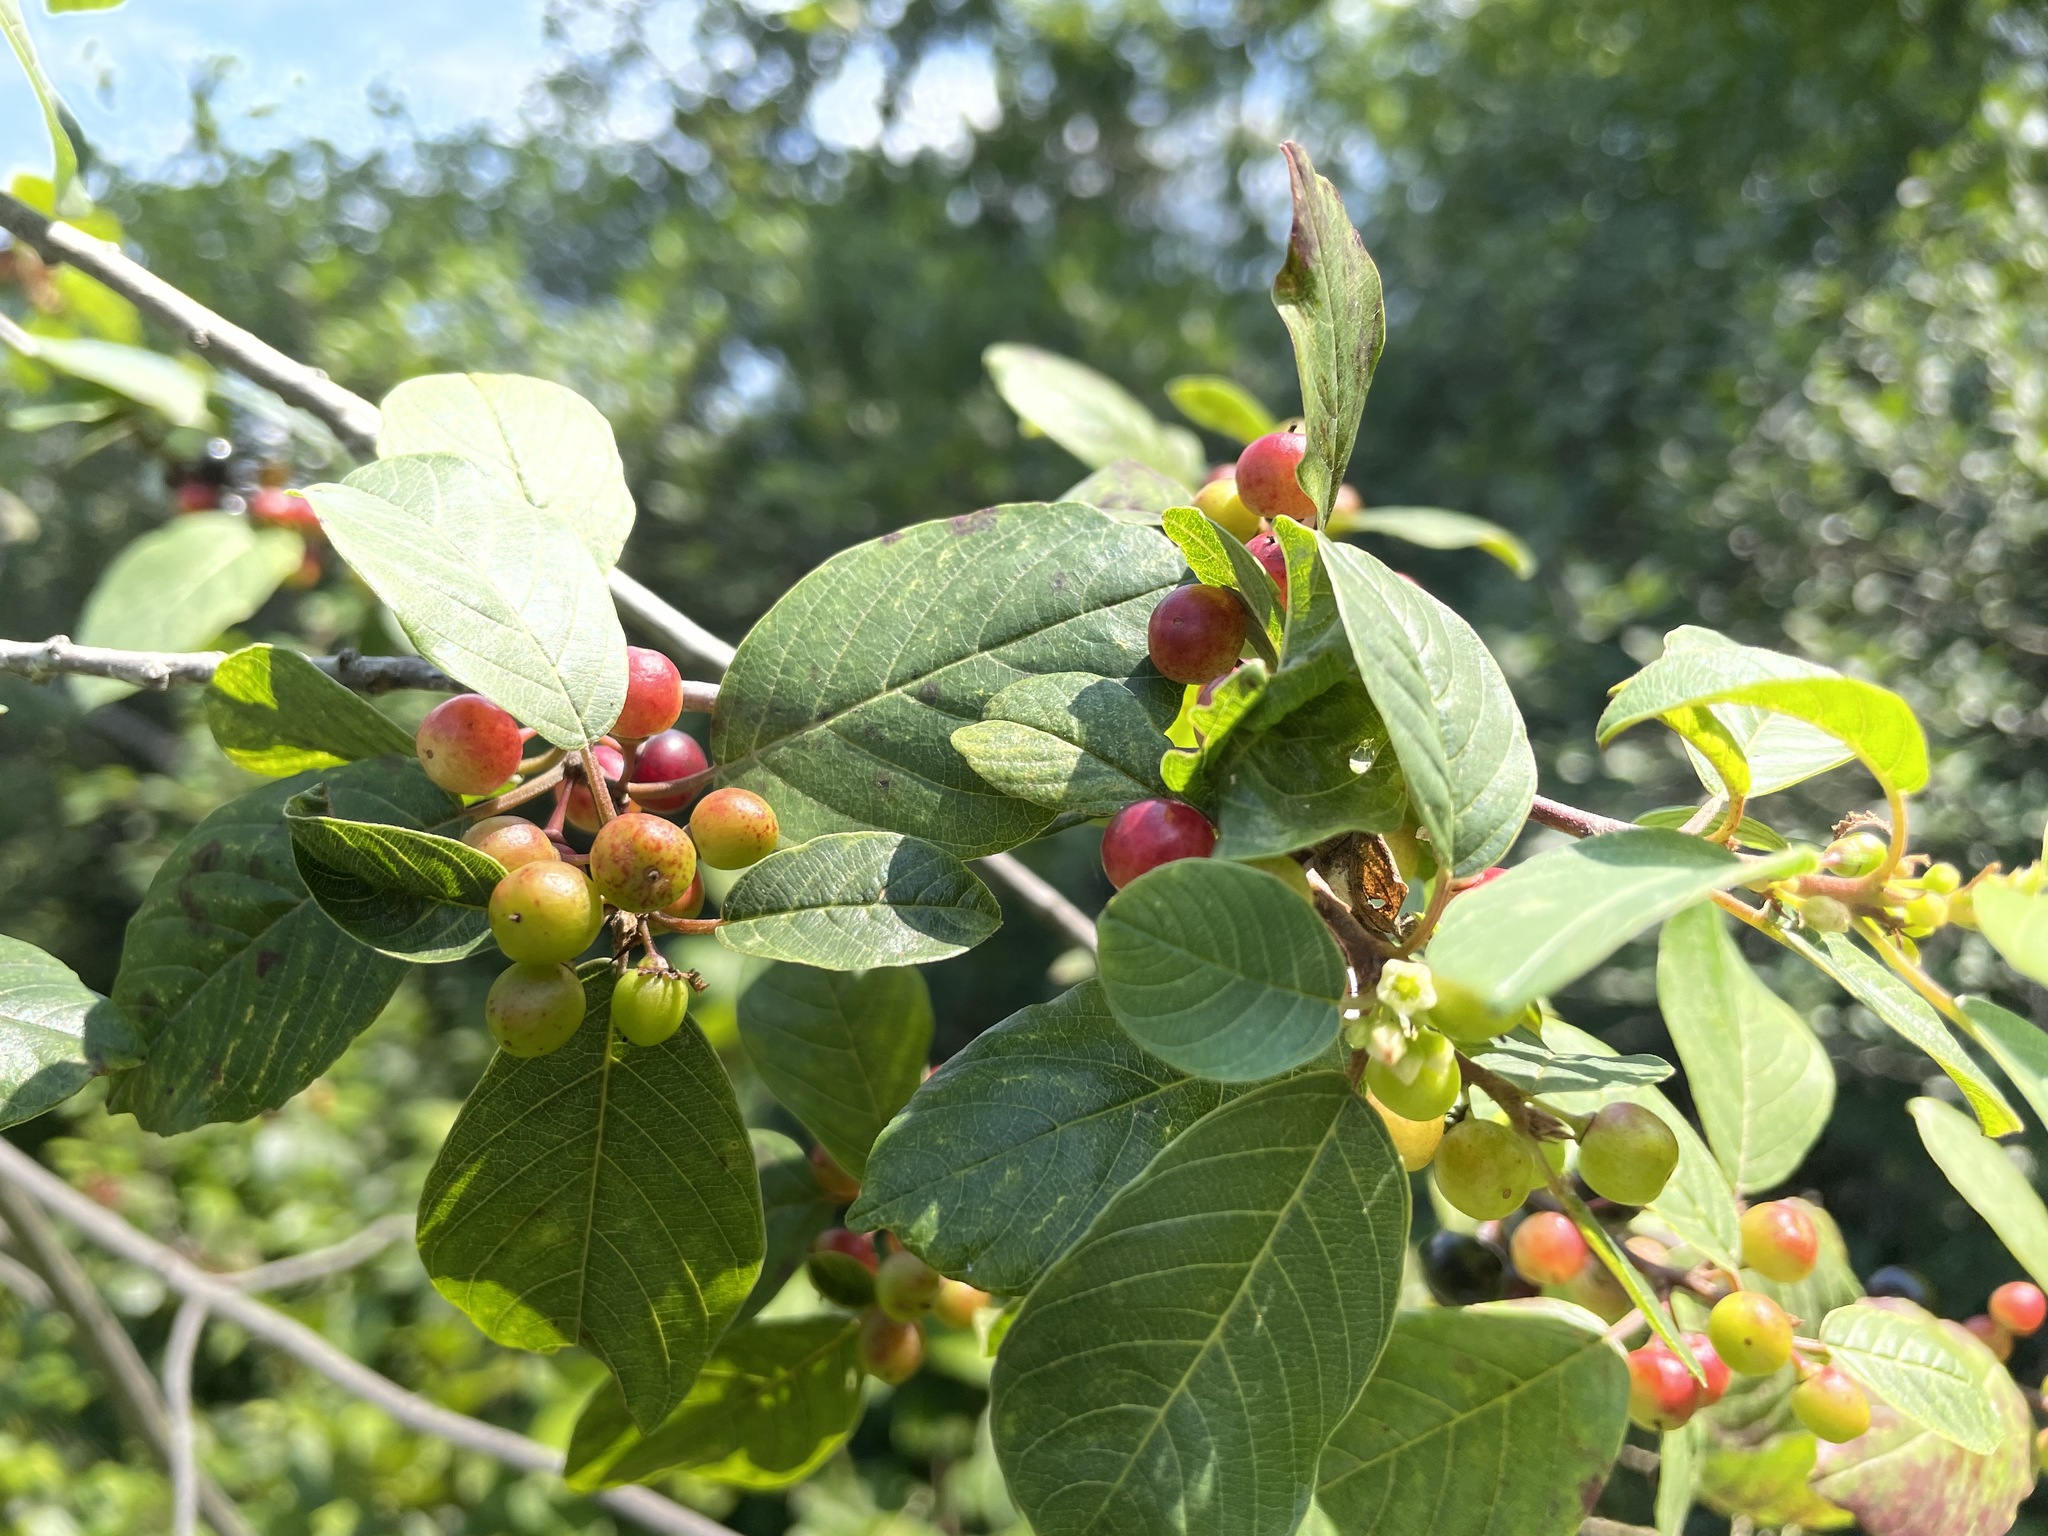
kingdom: Plantae
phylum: Tracheophyta
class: Magnoliopsida
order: Rosales
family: Rhamnaceae
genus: Frangula
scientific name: Frangula alnus
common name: Alder buckthorn
